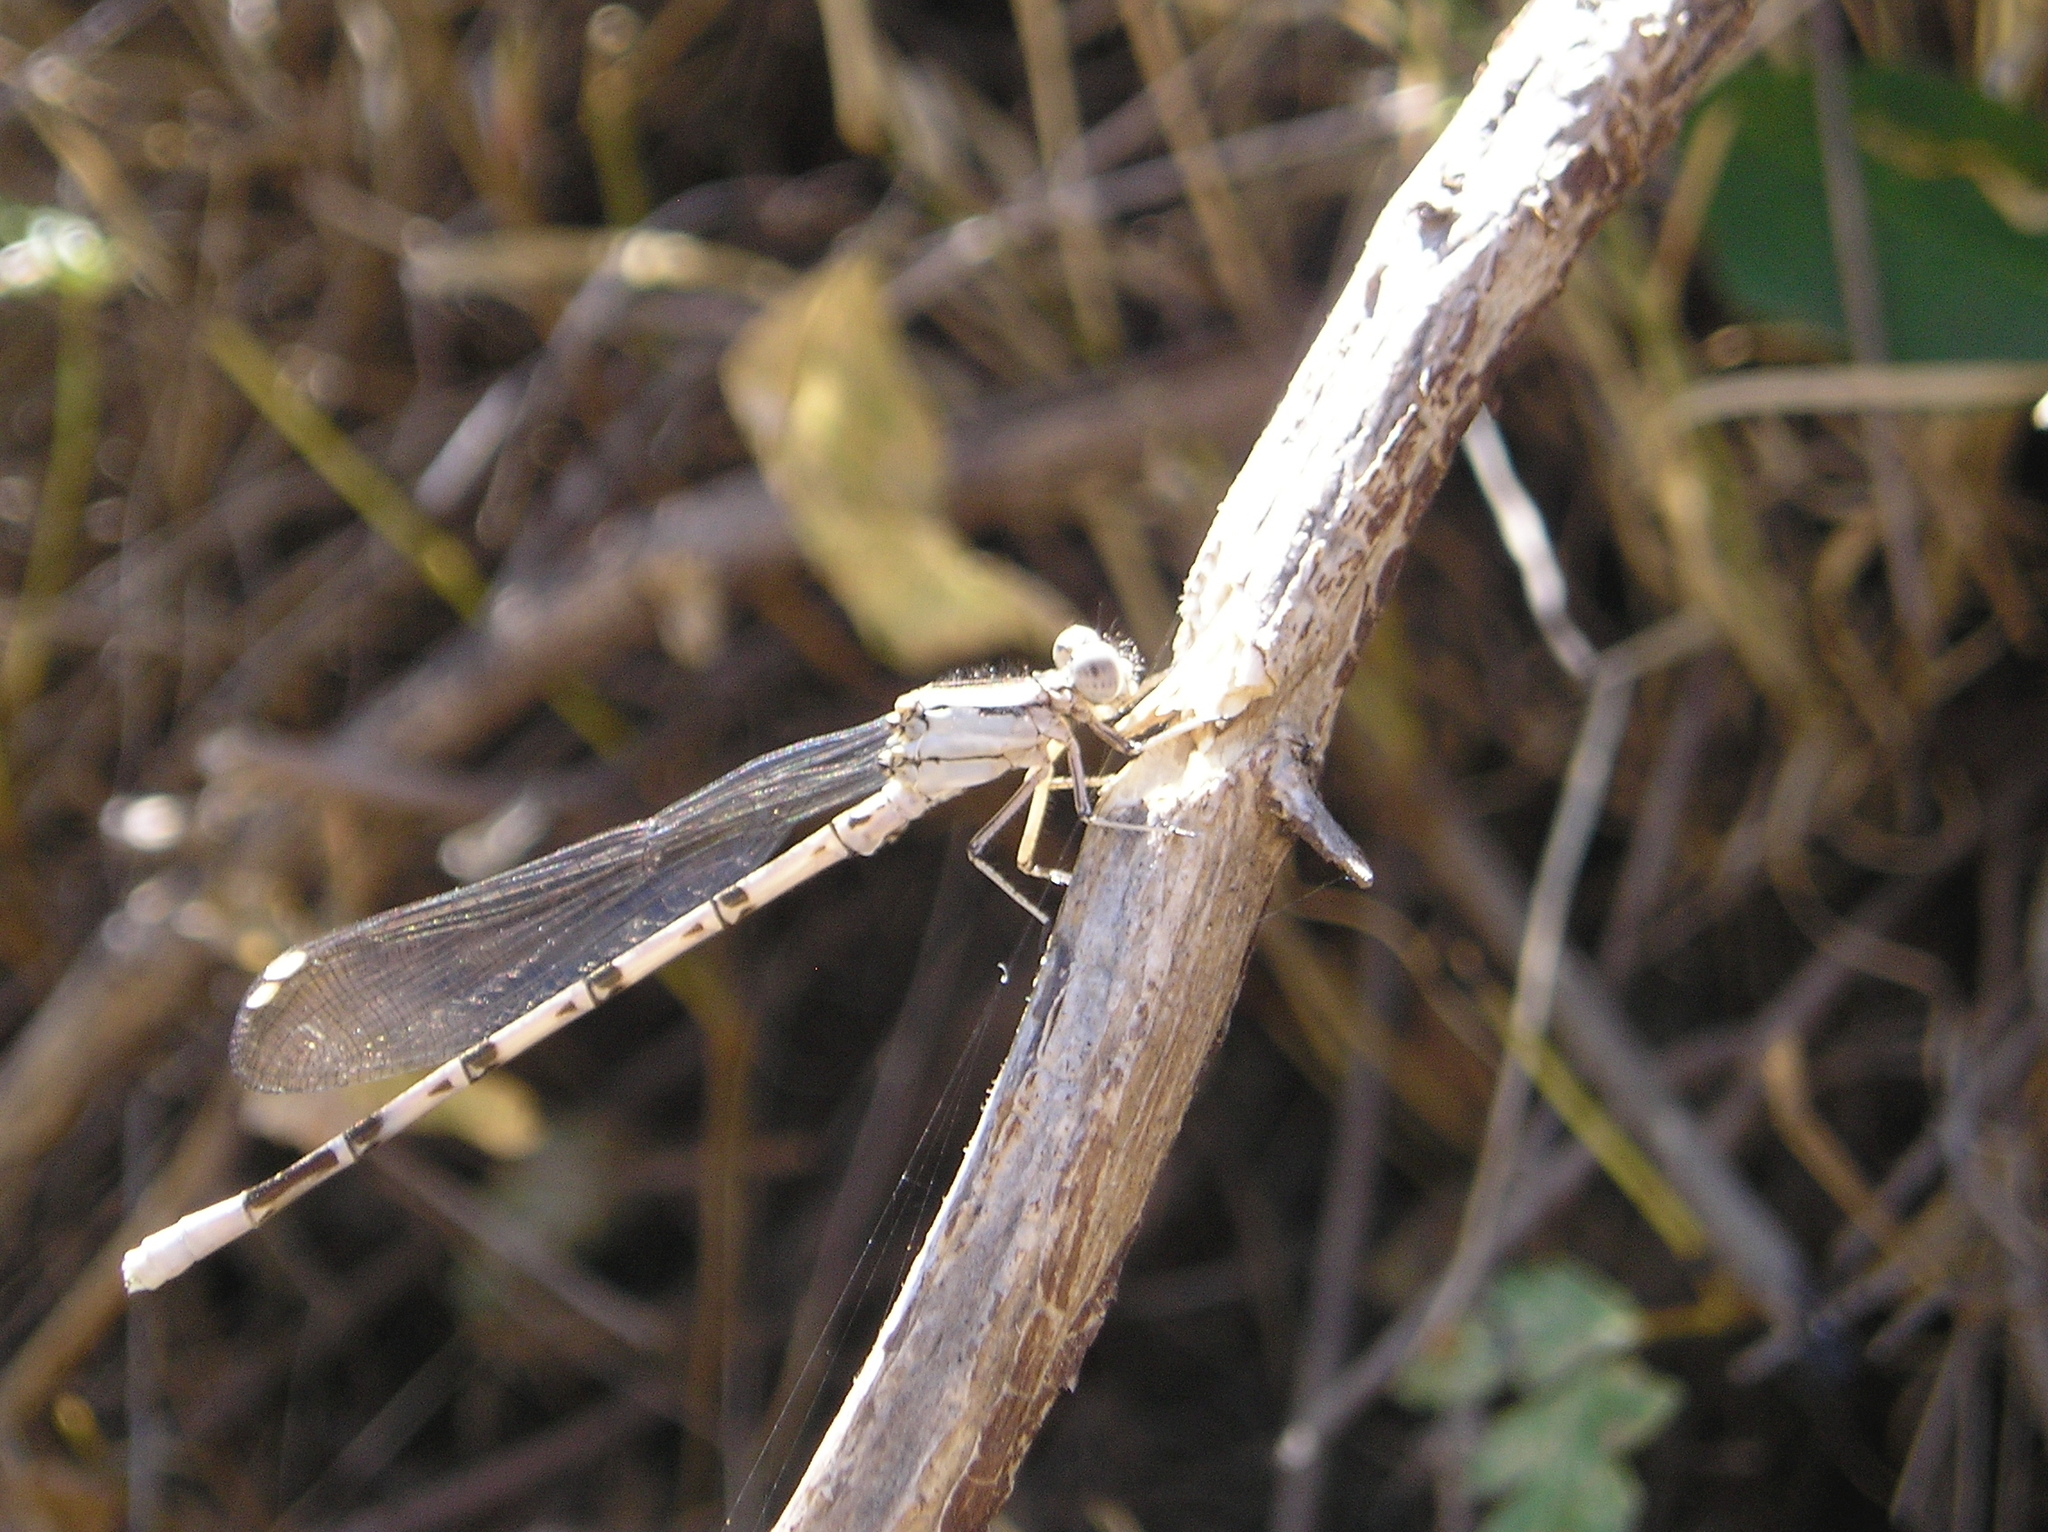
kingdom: Animalia
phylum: Arthropoda
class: Insecta
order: Odonata
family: Coenagrionidae
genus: Argia
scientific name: Argia vivida
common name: Vivid dancer
